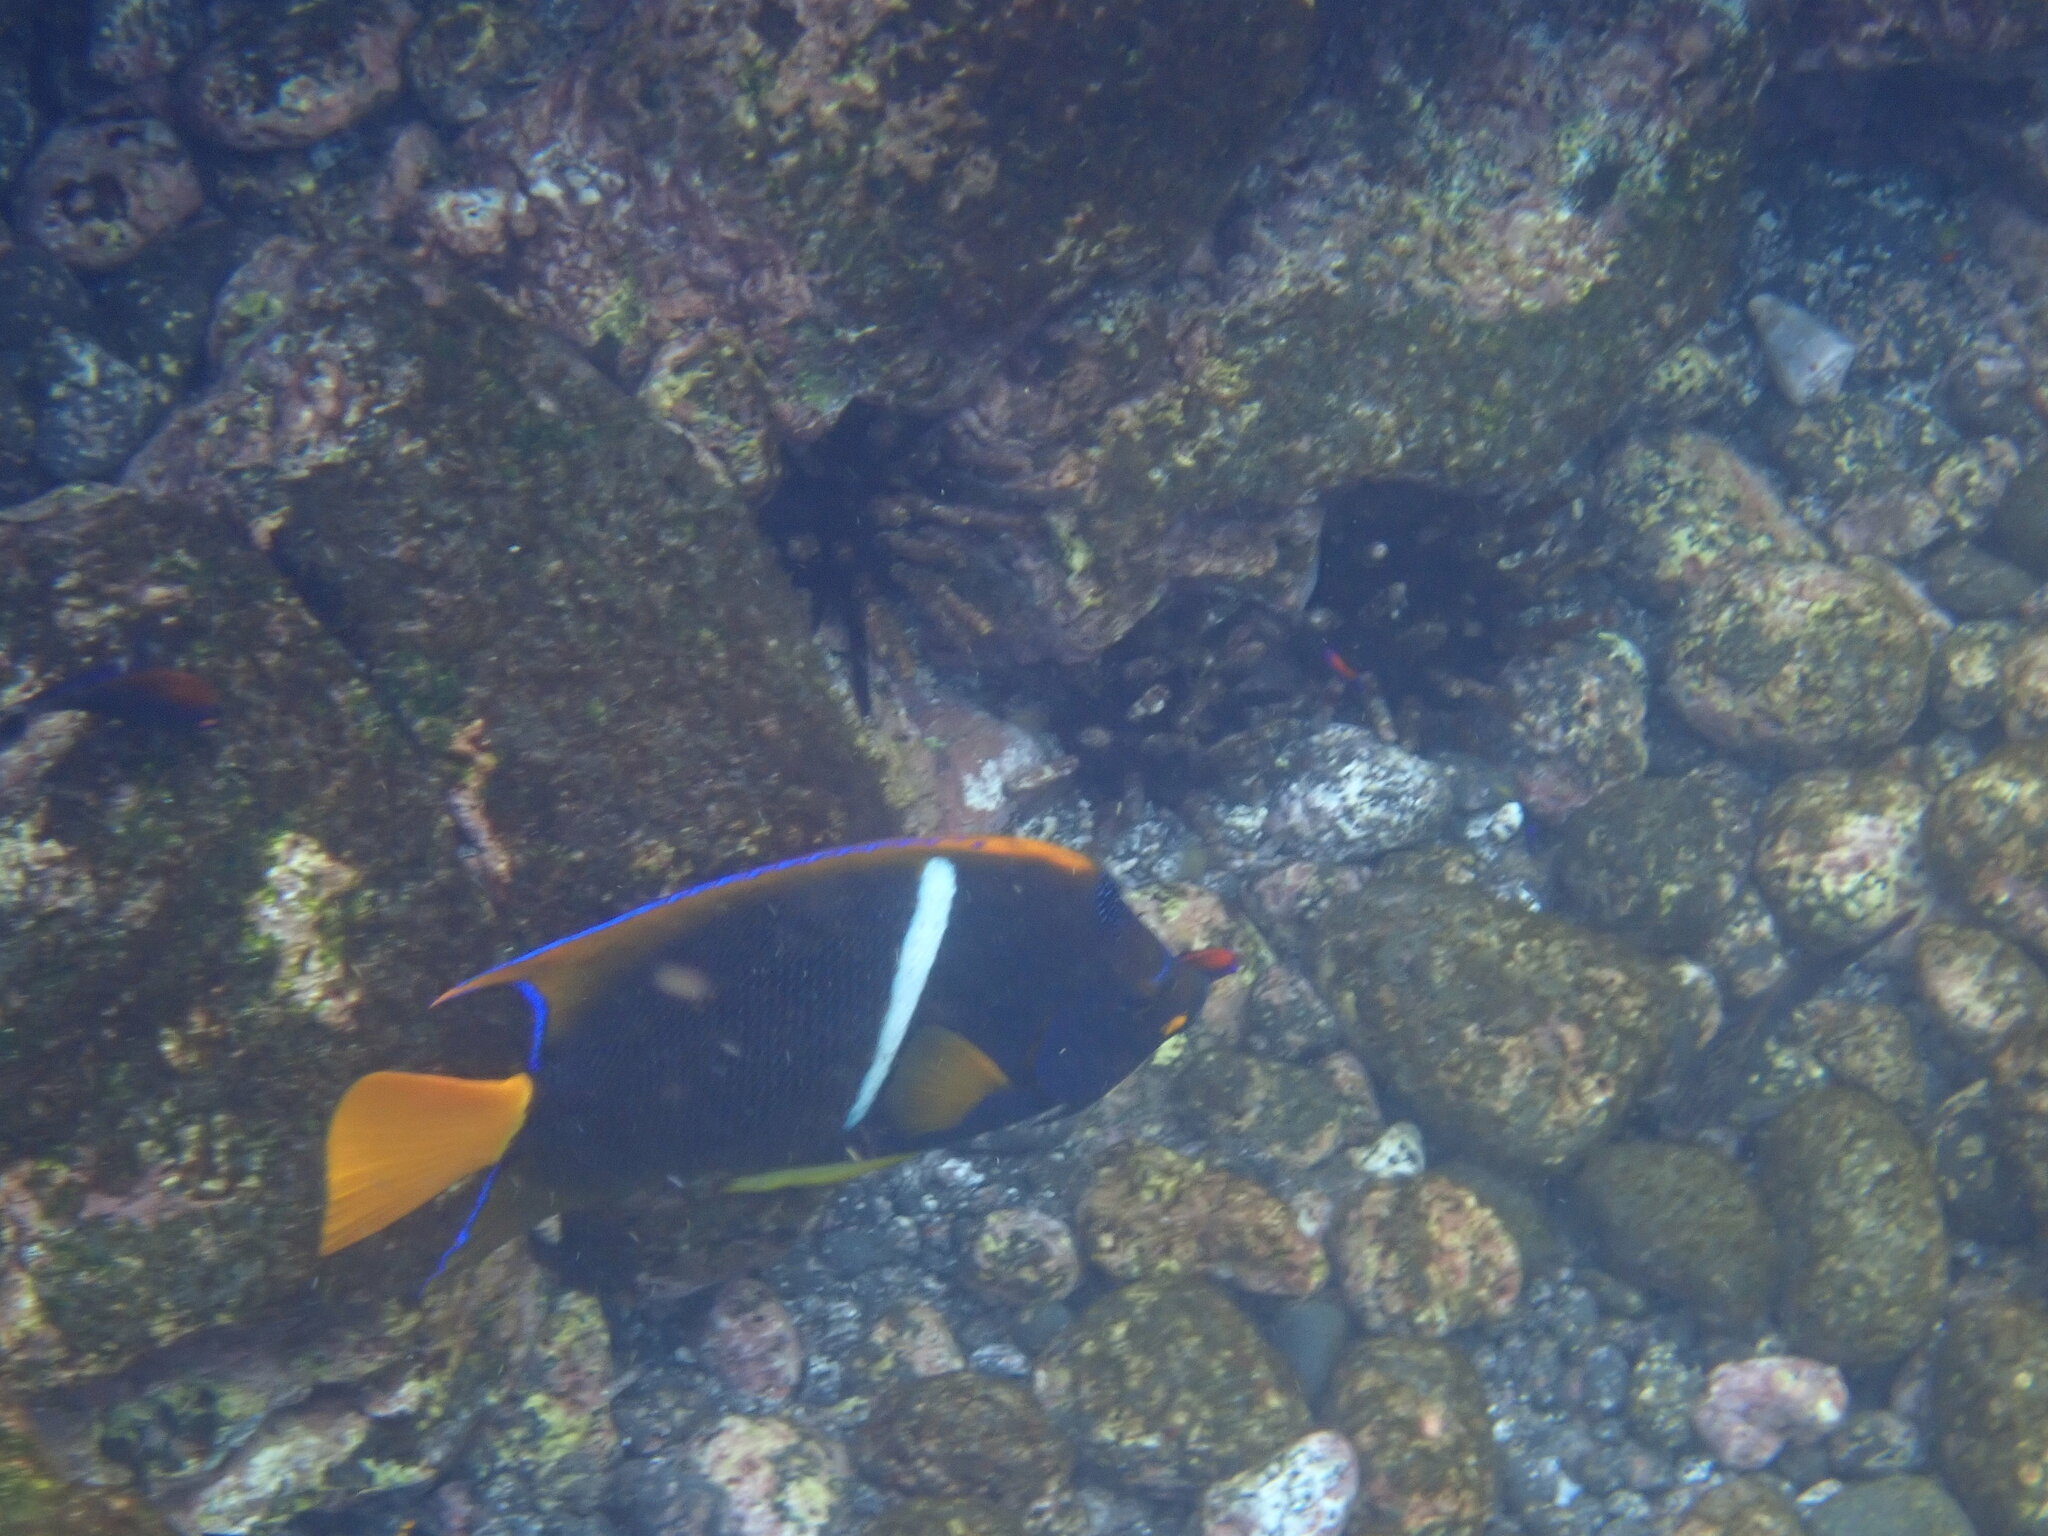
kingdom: Animalia
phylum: Chordata
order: Perciformes
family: Pomacanthidae
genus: Holacanthus
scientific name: Holacanthus passer
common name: King angelfish
